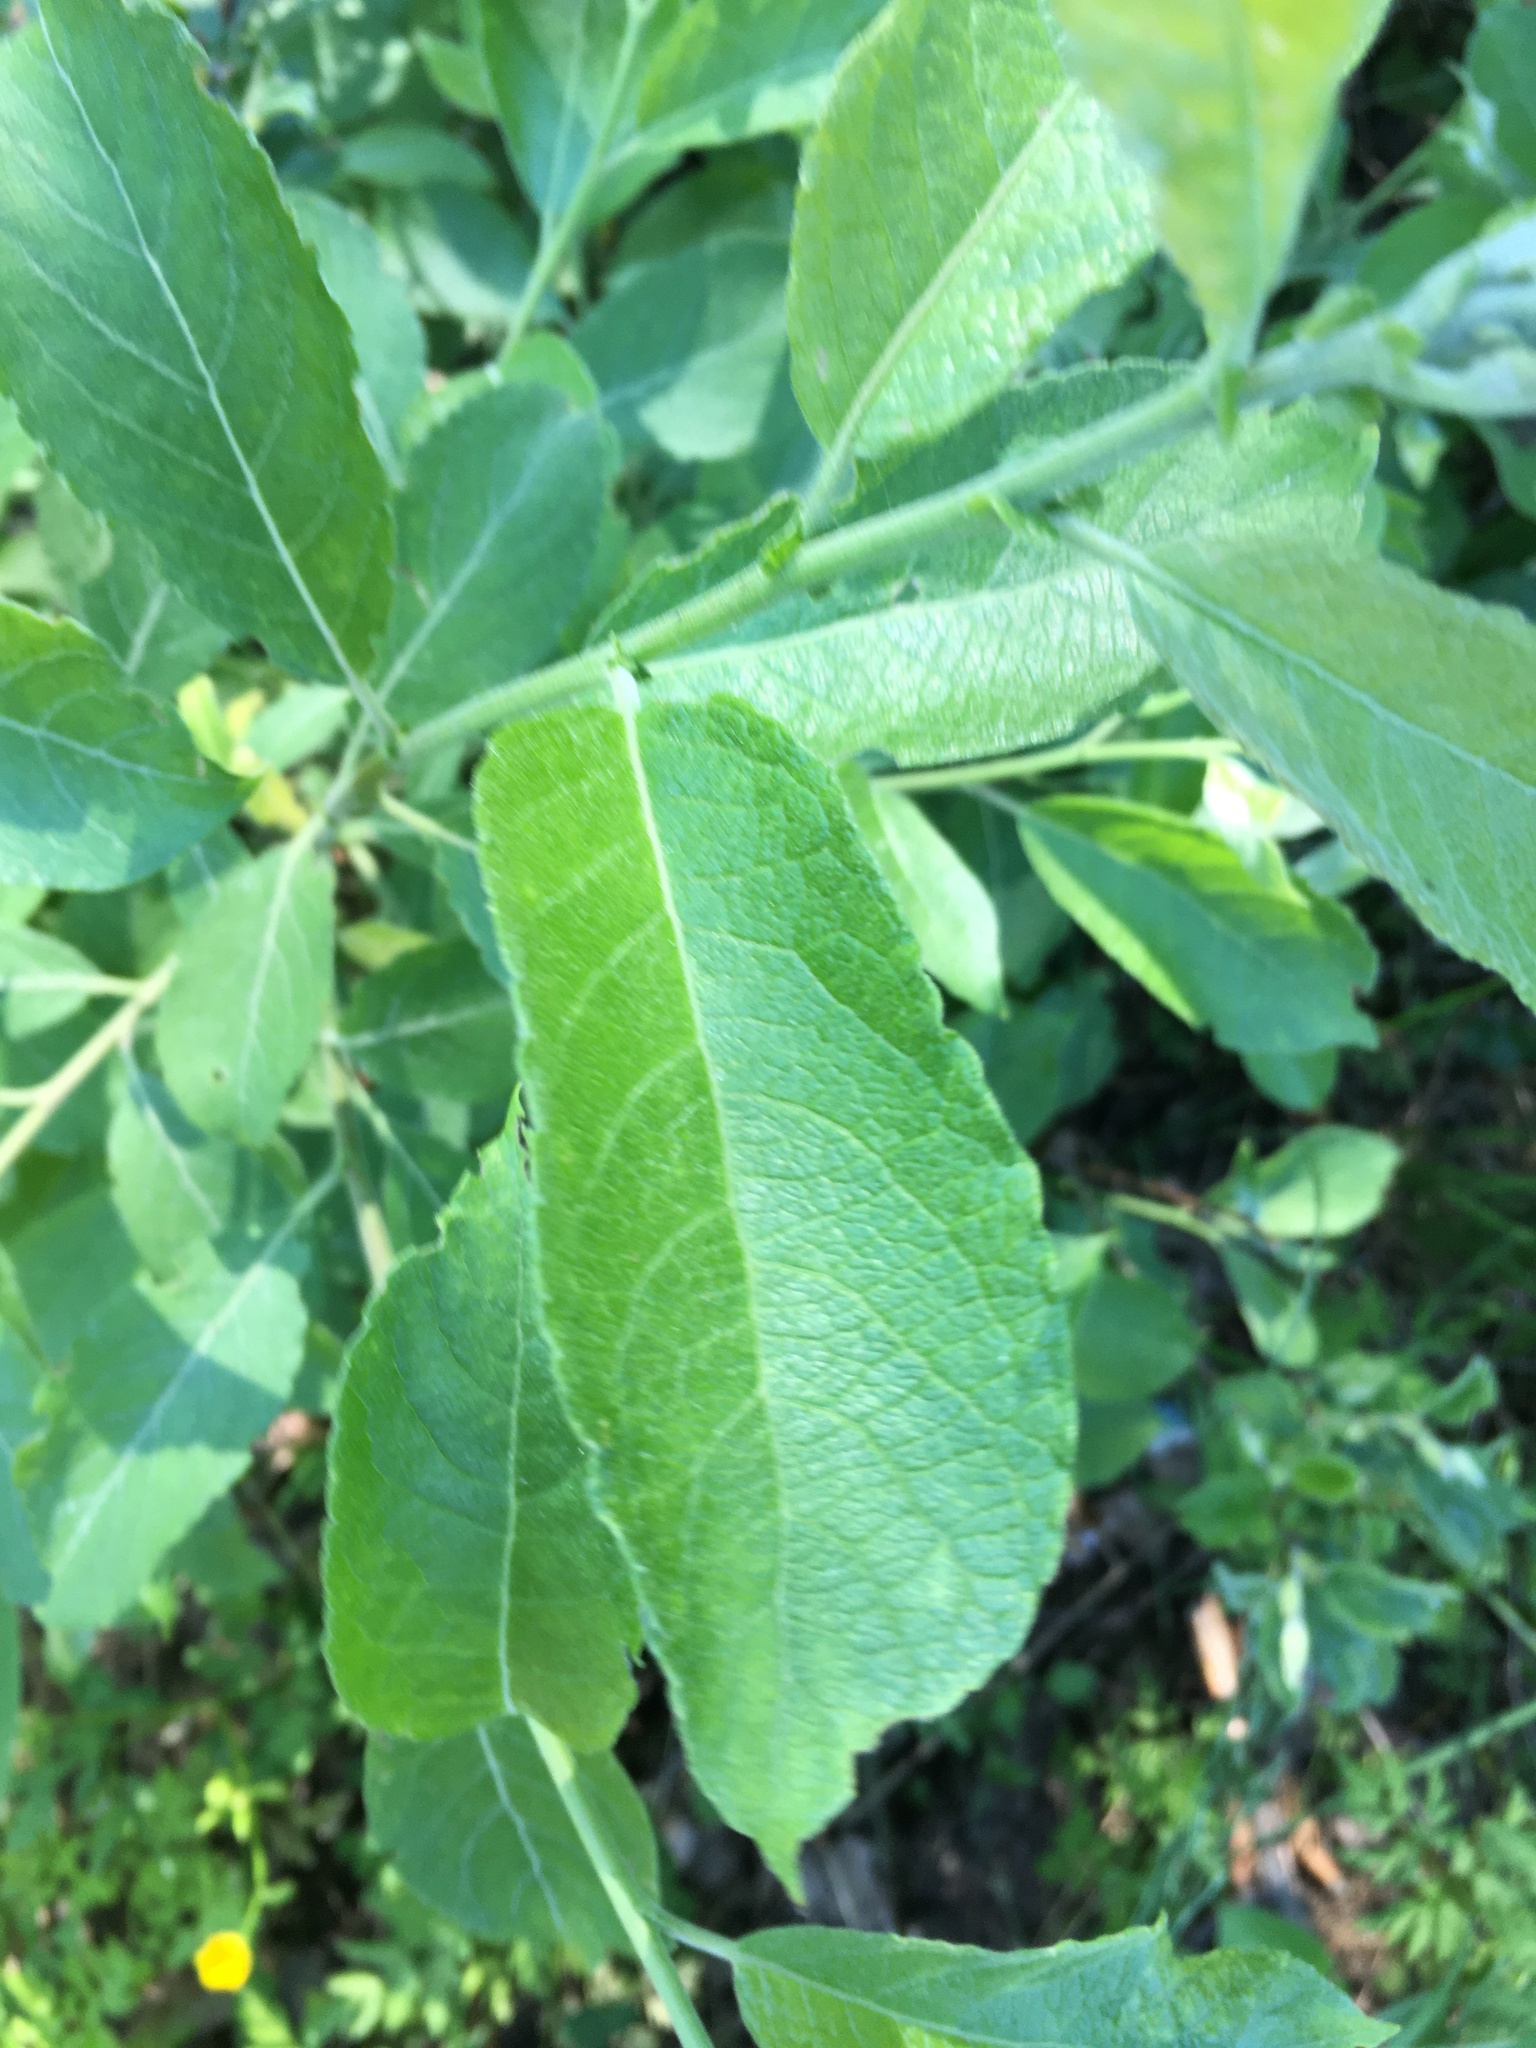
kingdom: Plantae
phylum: Tracheophyta
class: Magnoliopsida
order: Malpighiales
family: Salicaceae
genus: Salix
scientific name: Salix caprea
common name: Goat willow
